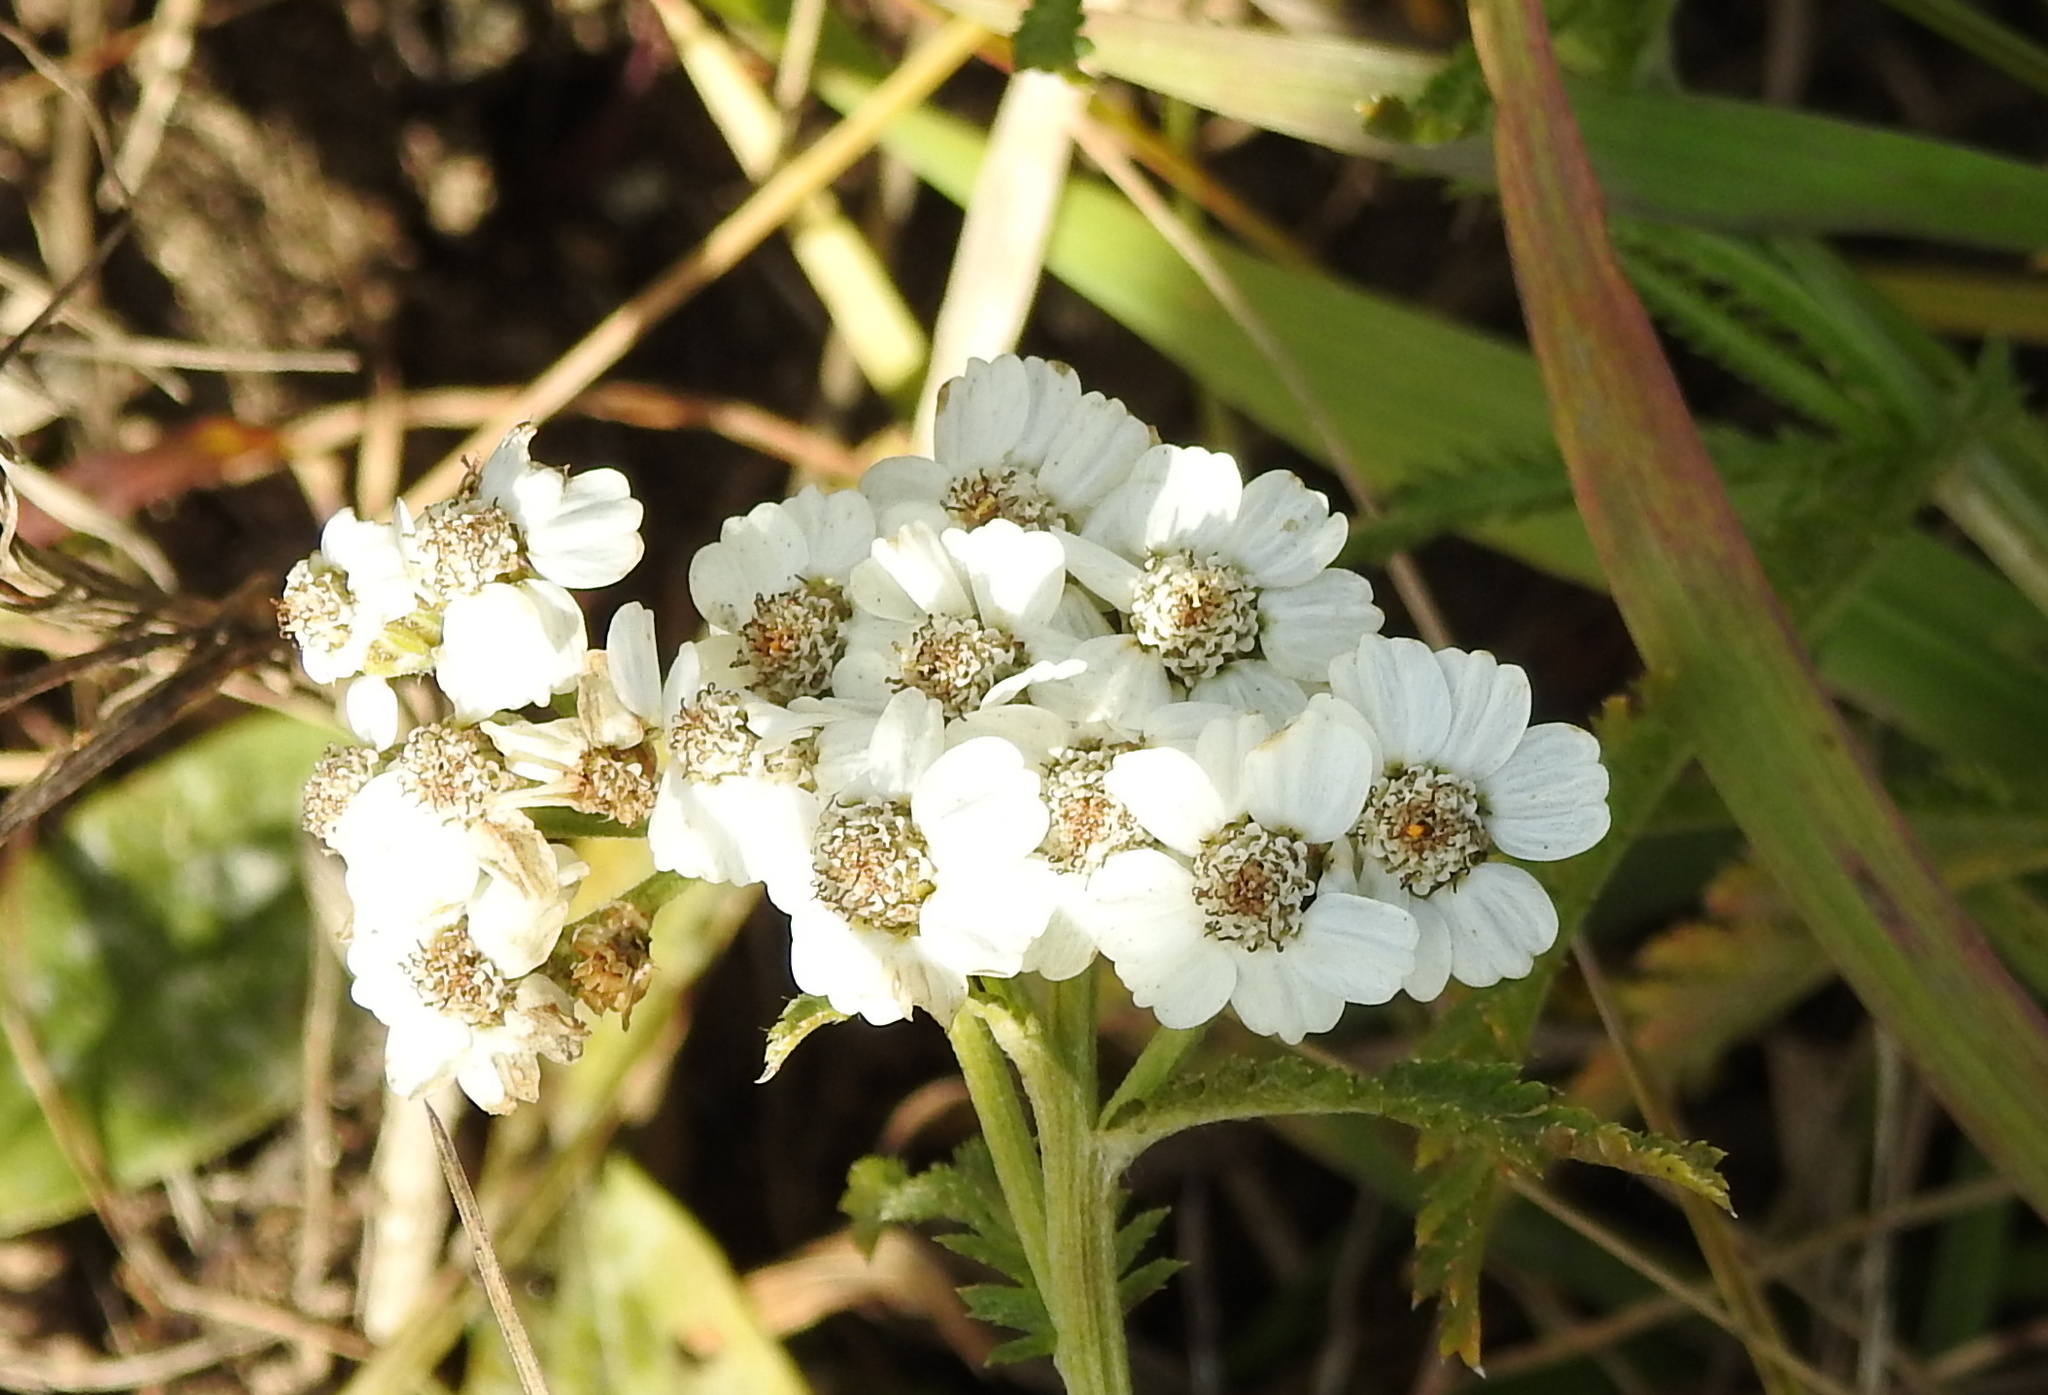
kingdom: Plantae
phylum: Tracheophyta
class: Magnoliopsida
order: Asterales
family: Asteraceae
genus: Achillea
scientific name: Achillea millefolium
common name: Yarrow
